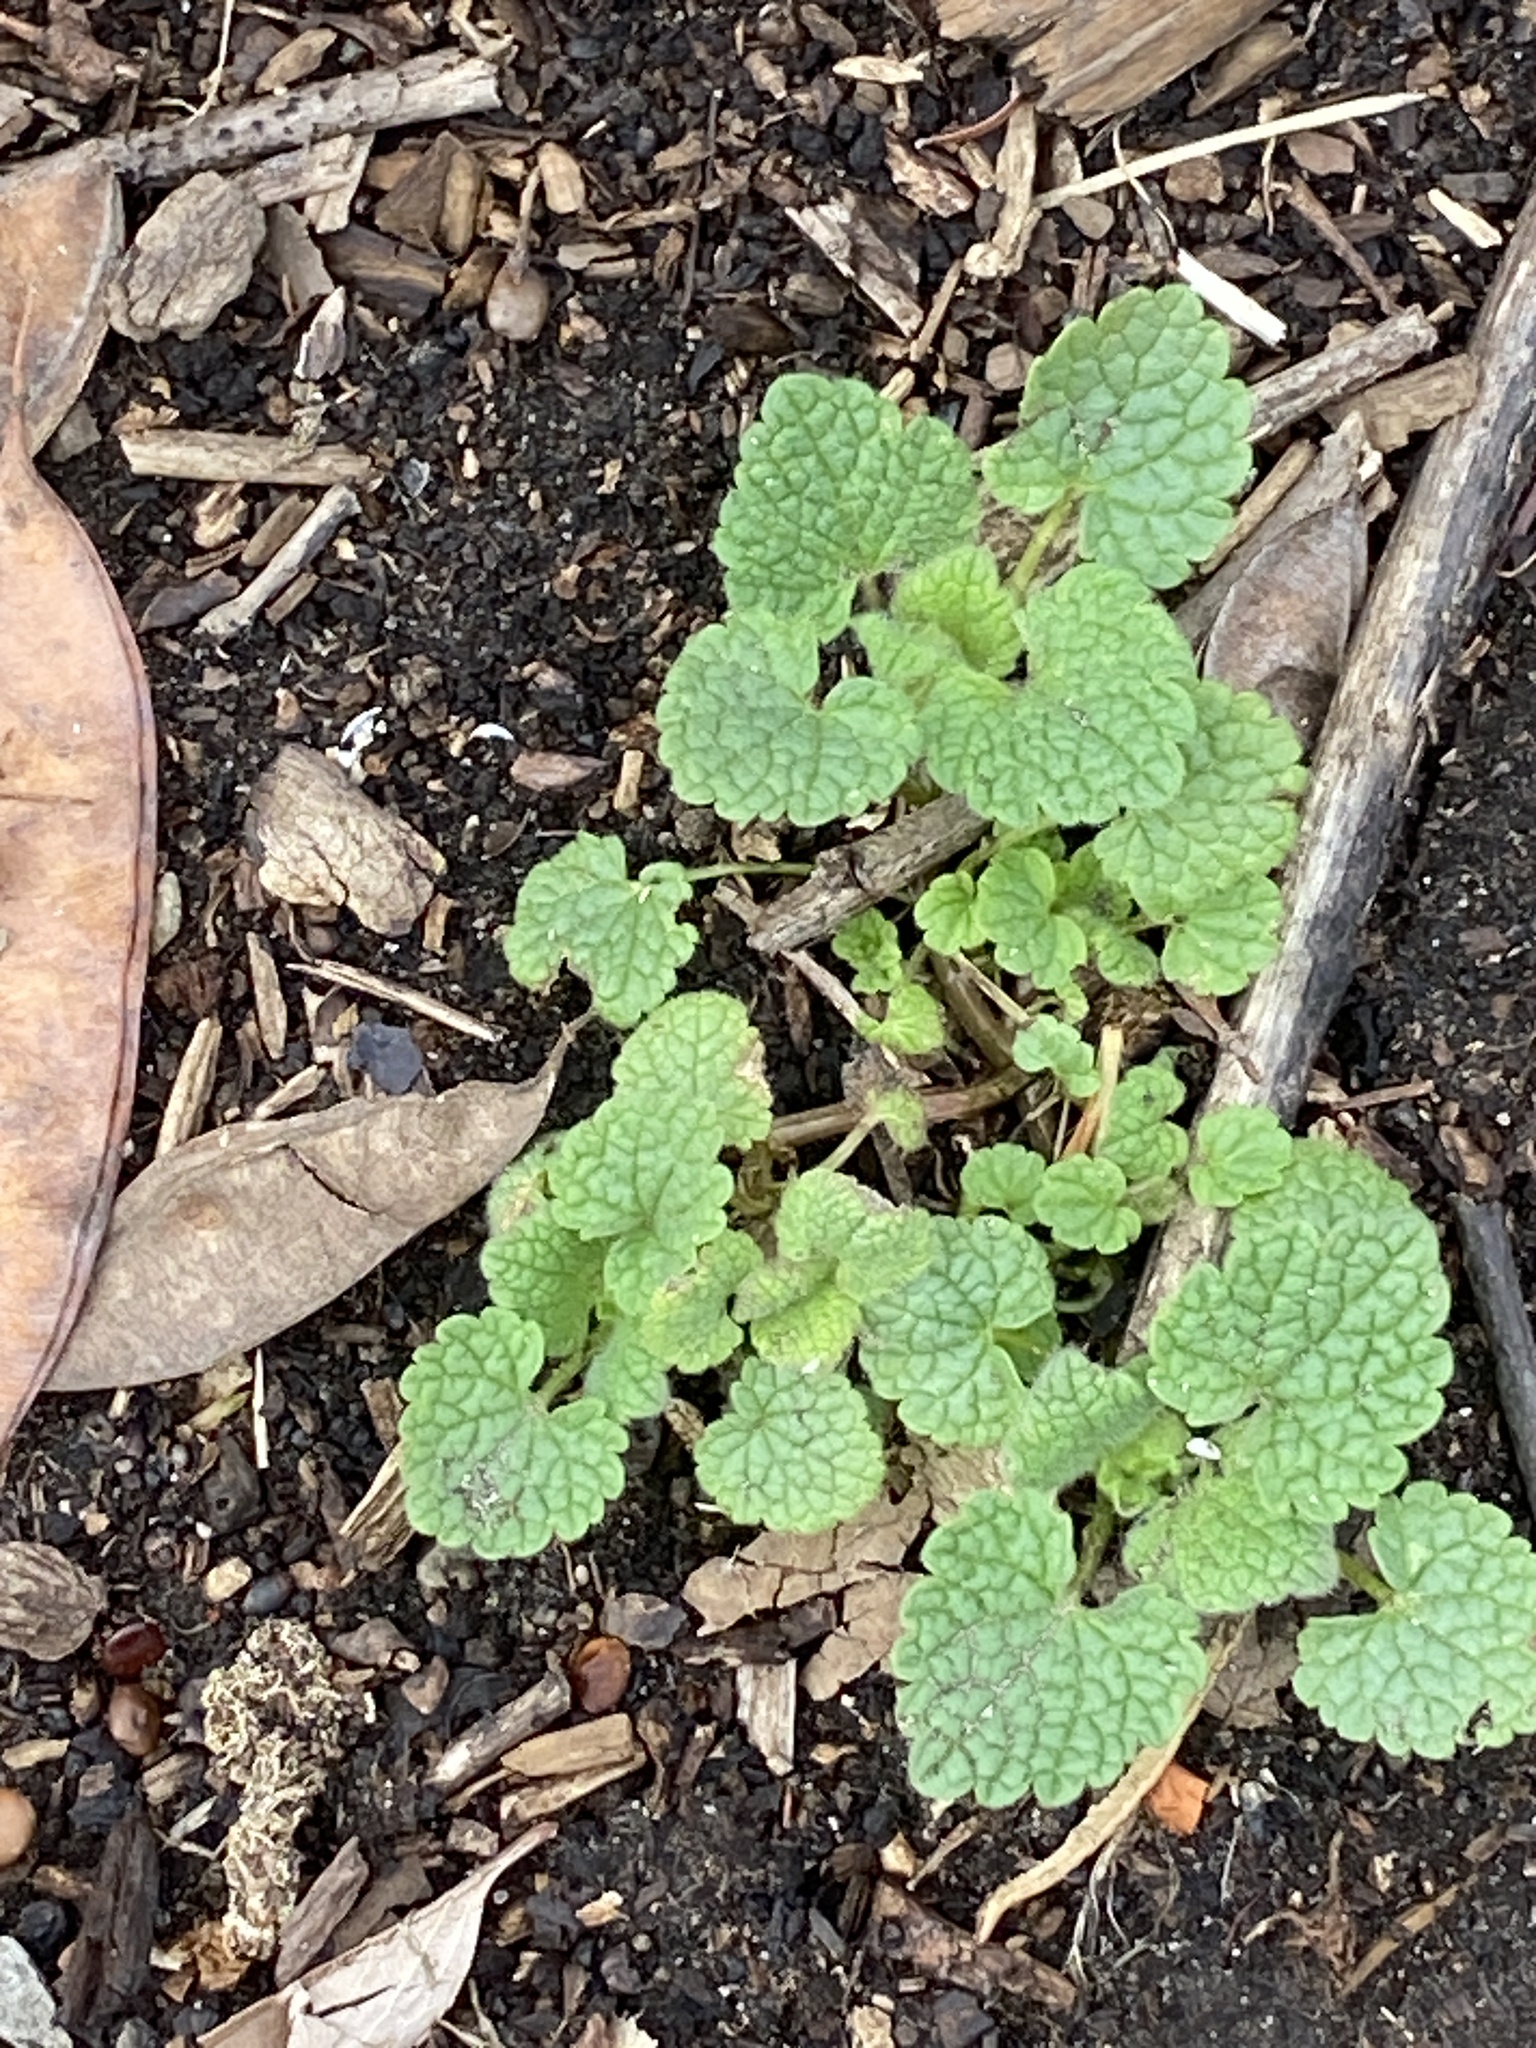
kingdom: Plantae
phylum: Tracheophyta
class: Magnoliopsida
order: Lamiales
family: Lamiaceae
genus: Lamium
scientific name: Lamium purpureum
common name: Red dead-nettle
